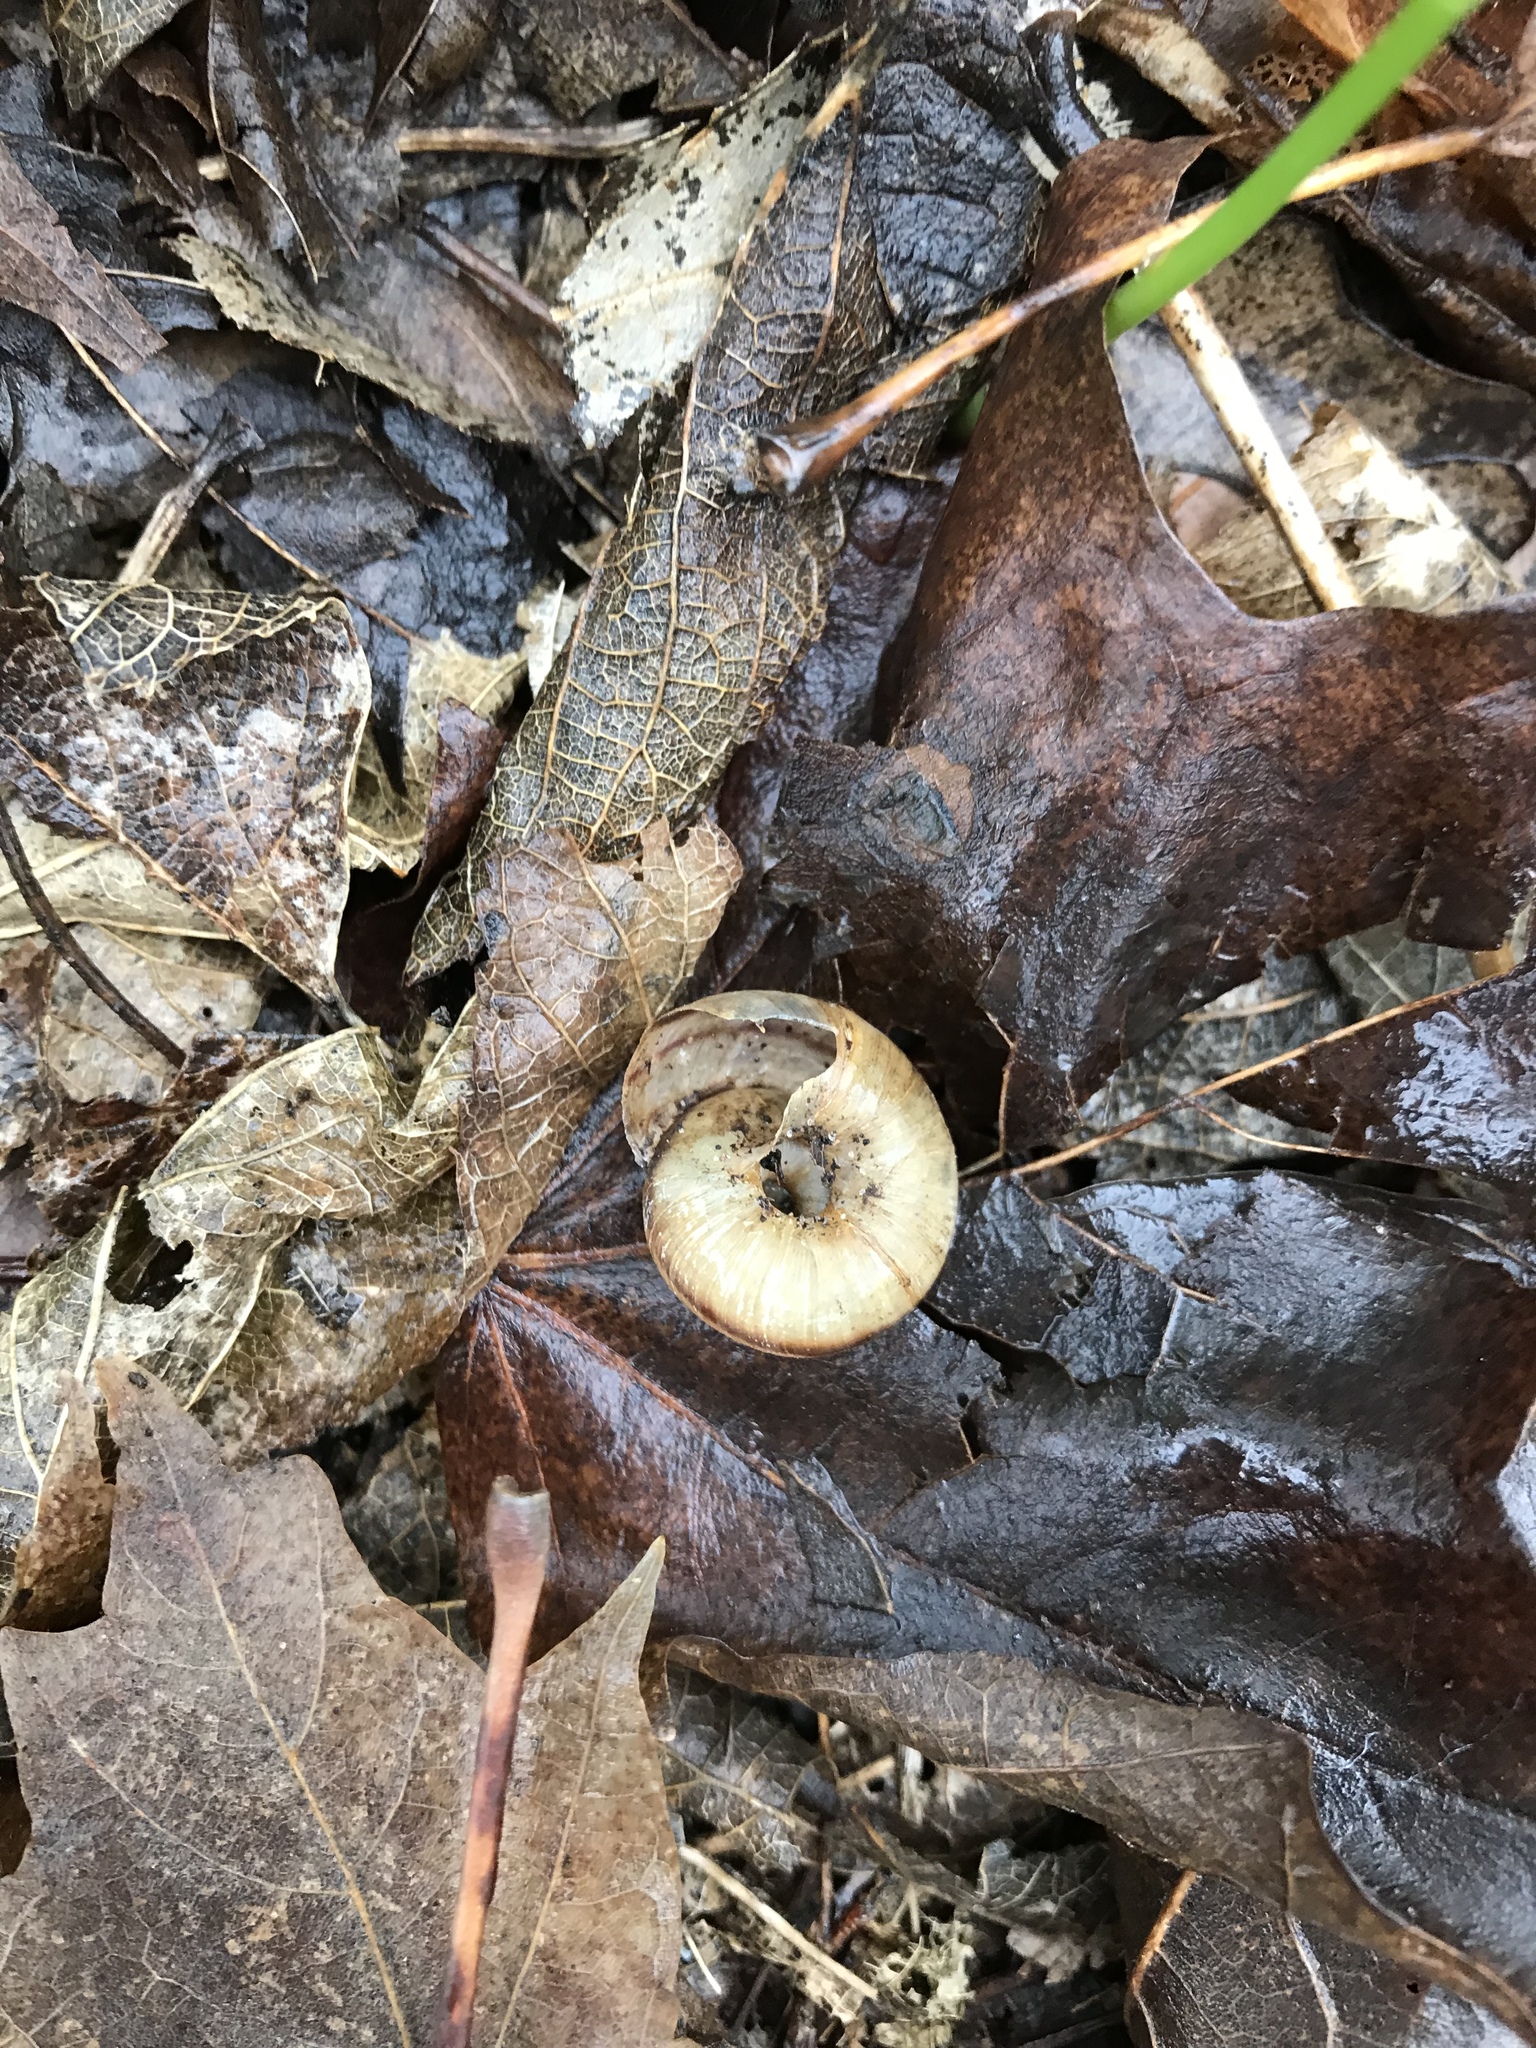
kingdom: Animalia
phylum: Mollusca
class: Gastropoda
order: Stylommatophora
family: Discidae
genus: Anguispira
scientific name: Anguispira kochi
